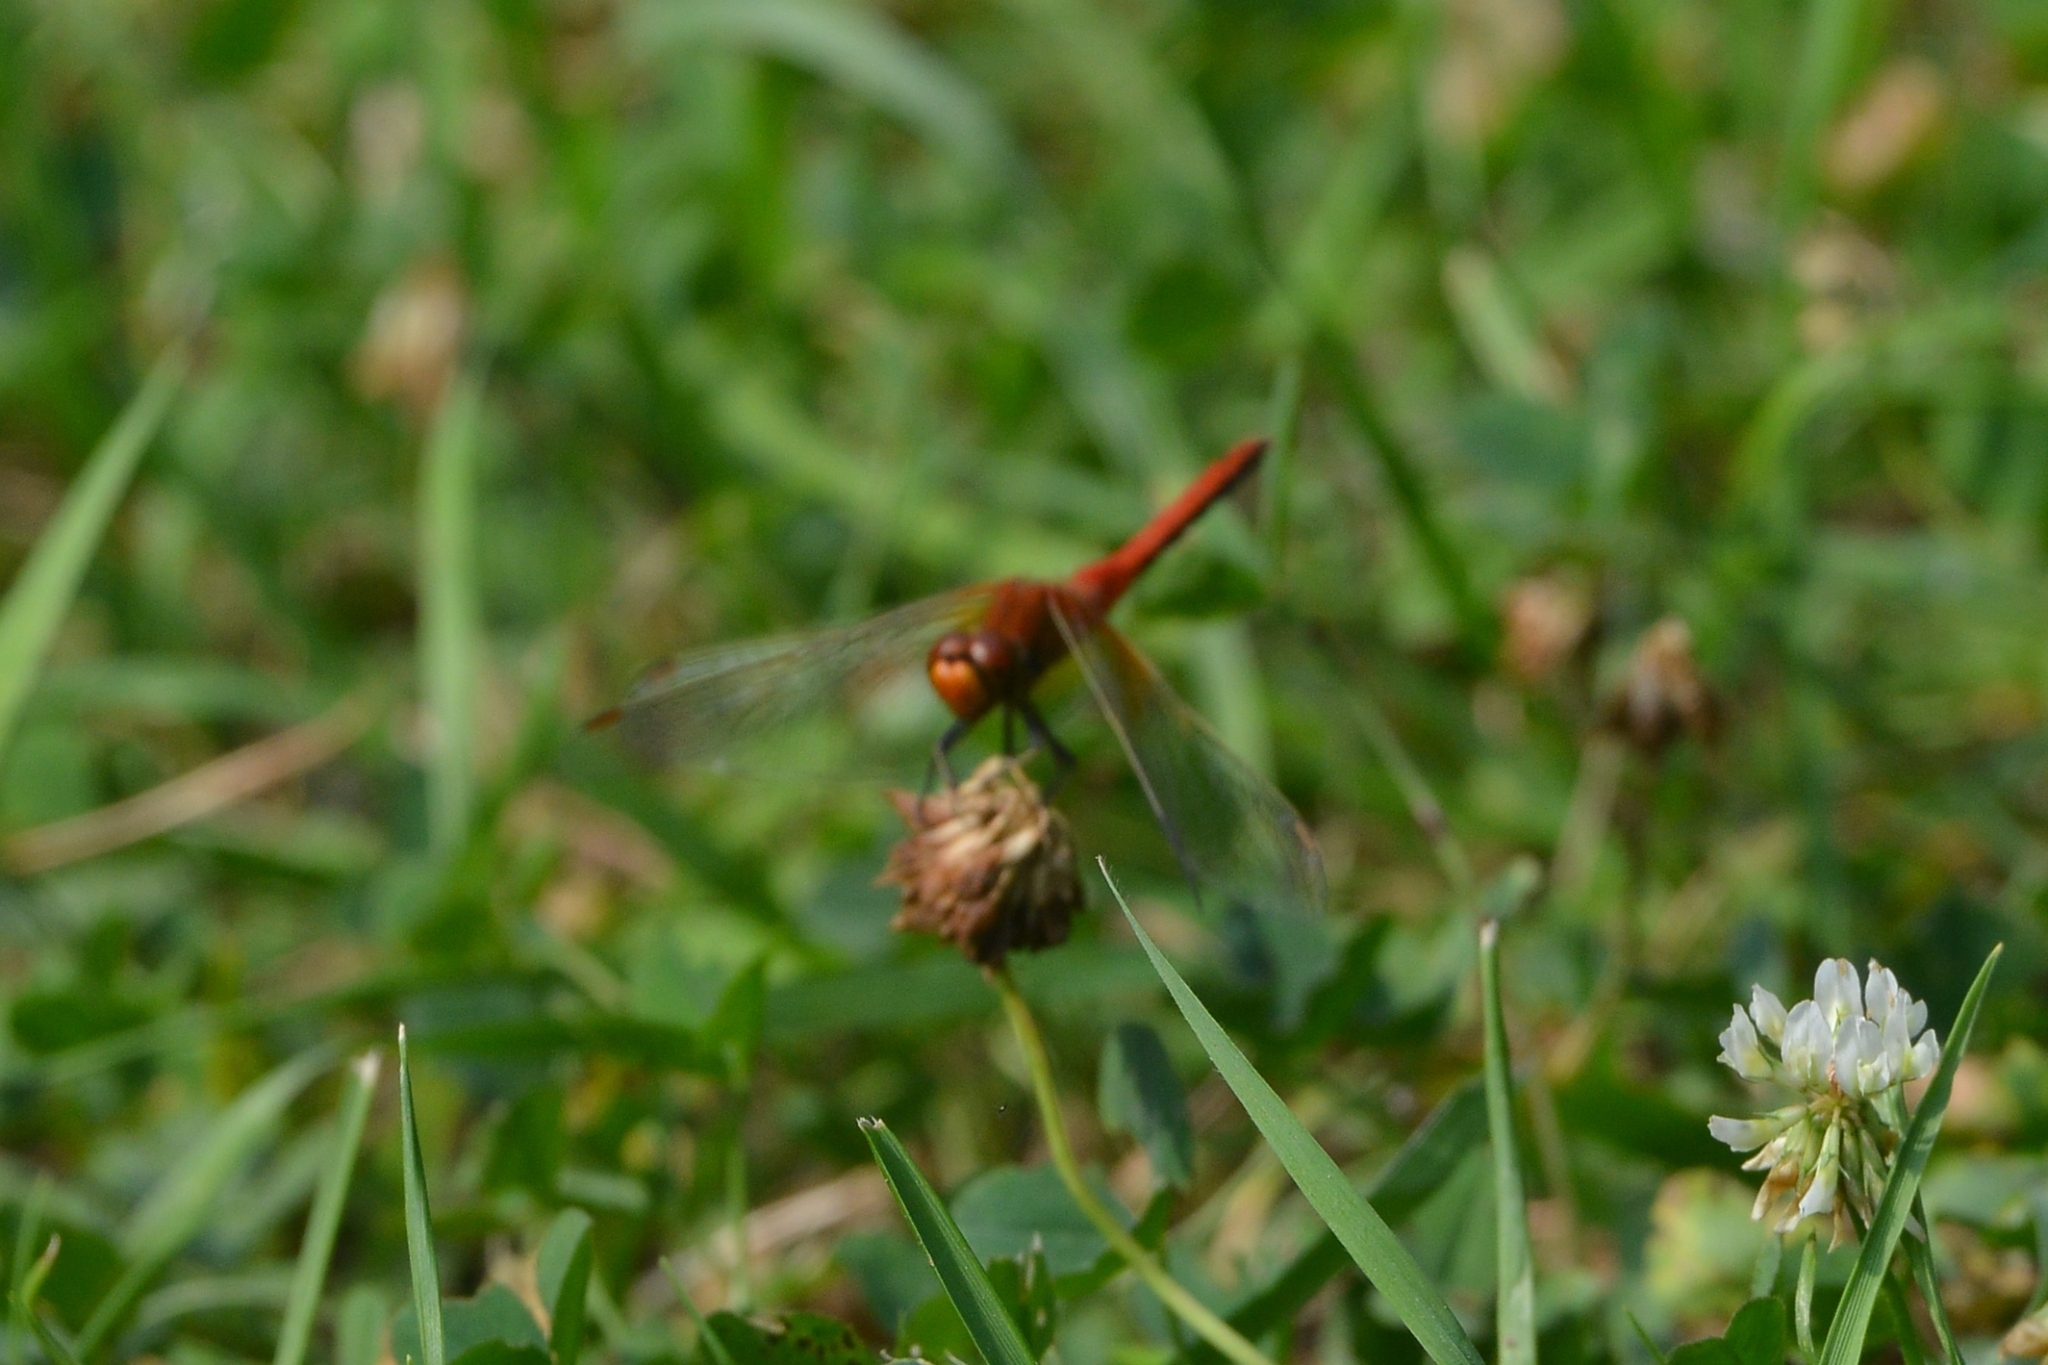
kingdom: Animalia
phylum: Arthropoda
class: Insecta
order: Odonata
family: Libellulidae
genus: Sympetrum
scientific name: Sympetrum flaveolum
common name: Yellow-winged darter
